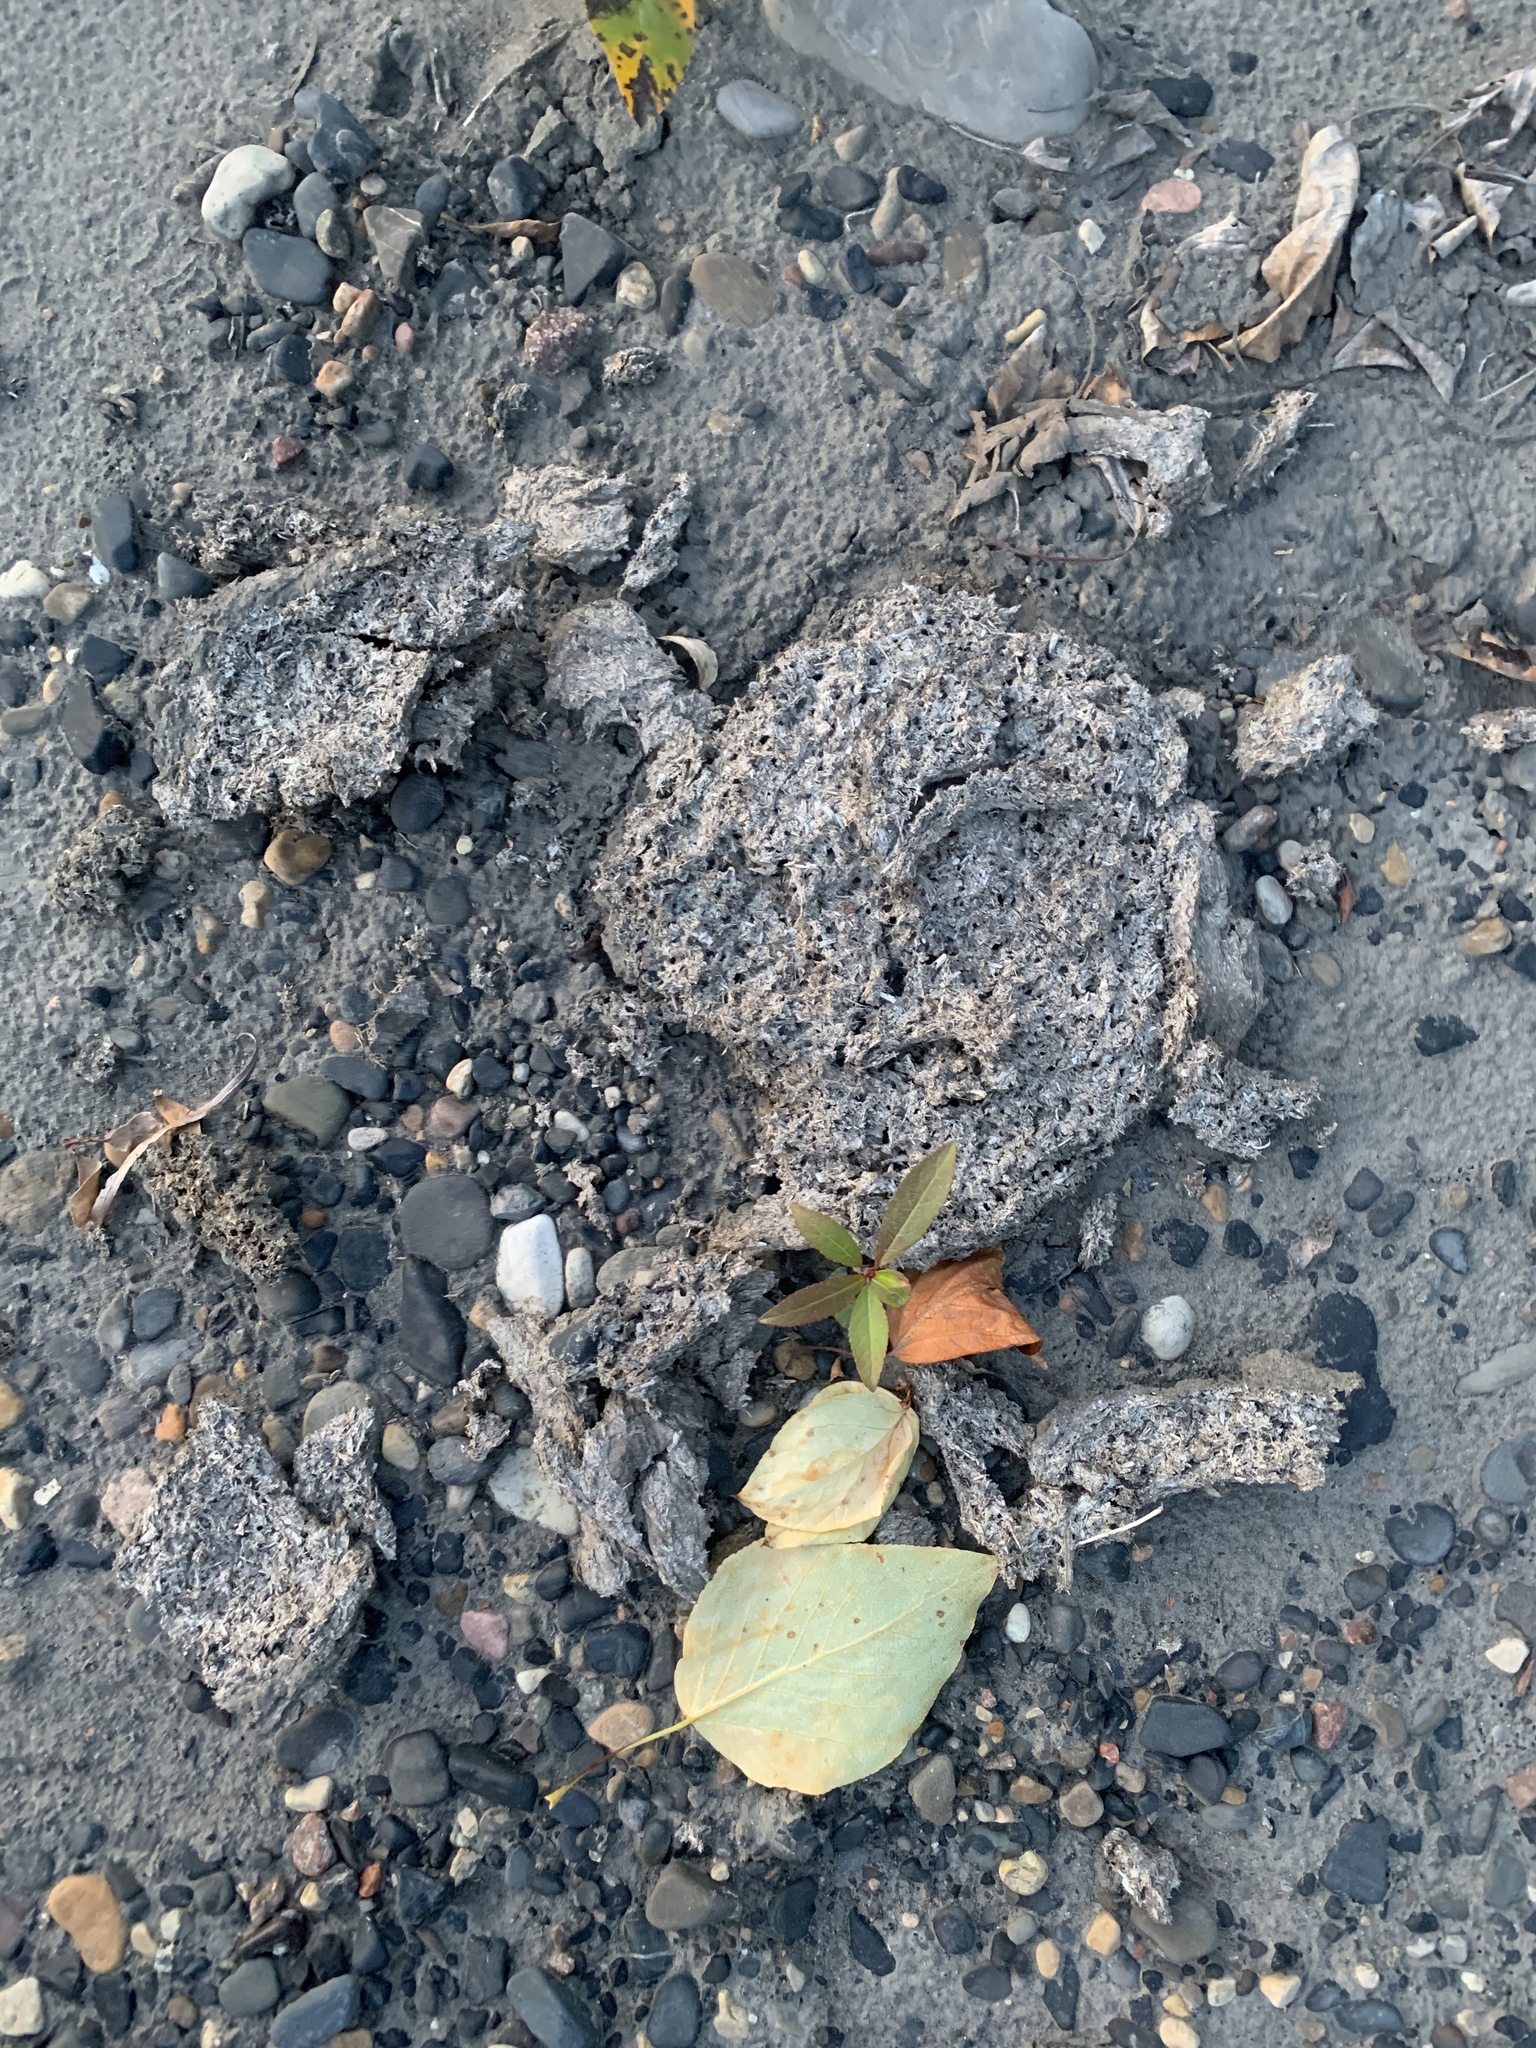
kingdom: Animalia
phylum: Chordata
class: Mammalia
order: Artiodactyla
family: Bovidae
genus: Bison
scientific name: Bison bison
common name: American bison
